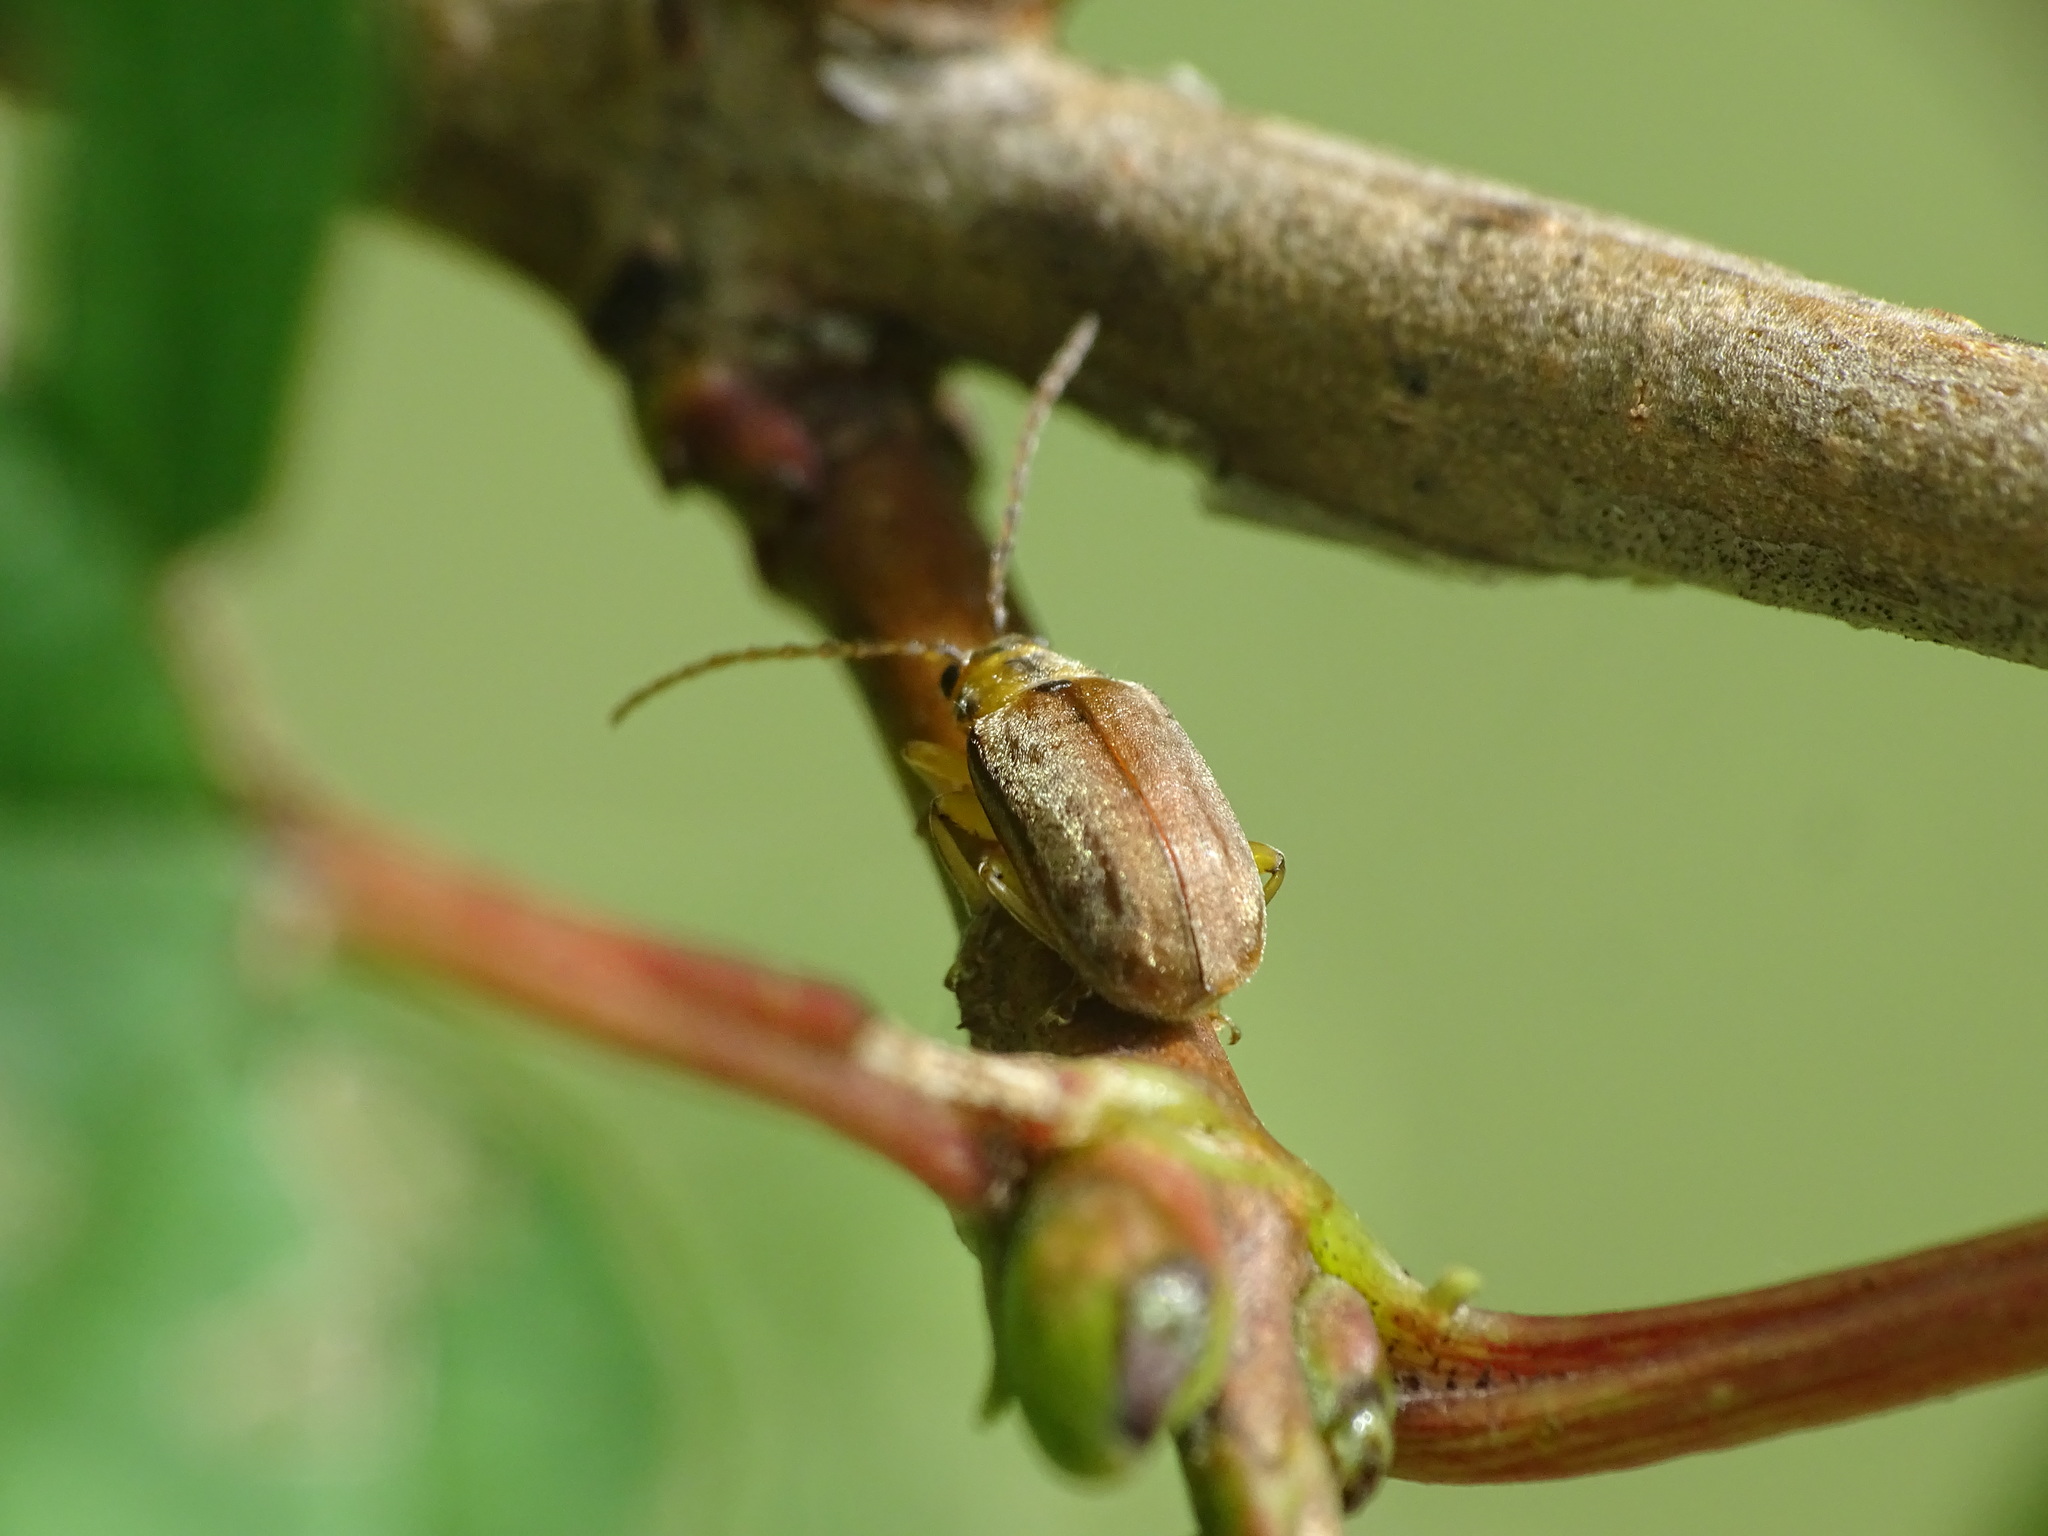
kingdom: Animalia
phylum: Arthropoda
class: Insecta
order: Coleoptera
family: Chrysomelidae
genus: Pyrrhalta
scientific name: Pyrrhalta viburni
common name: Guelder-rose leaf beetle
